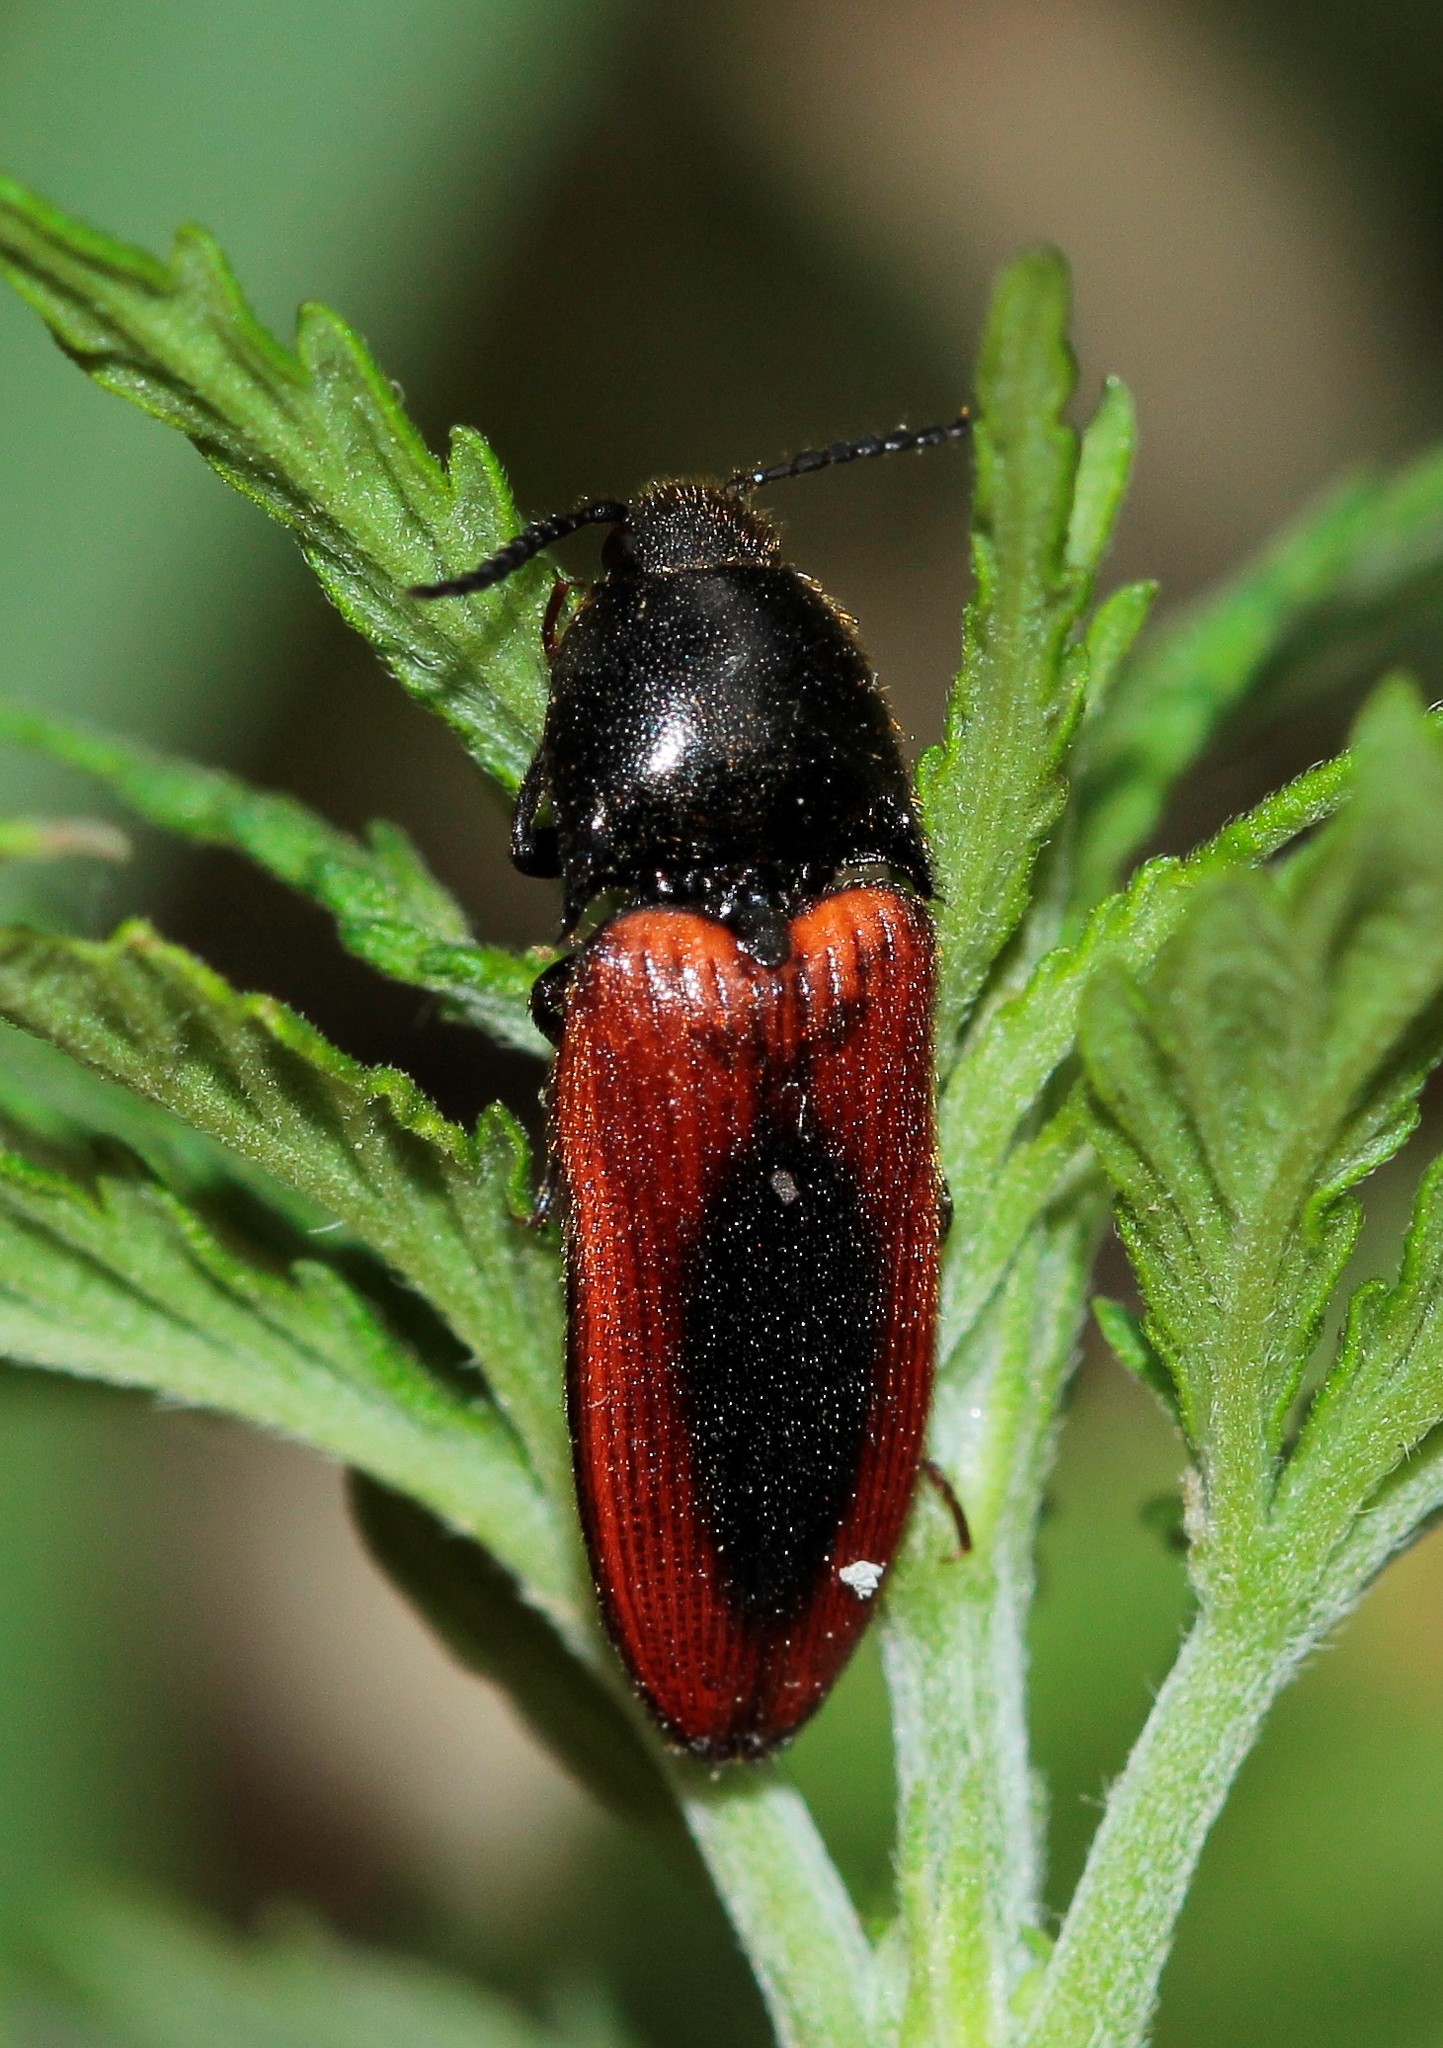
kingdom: Animalia
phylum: Arthropoda
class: Insecta
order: Coleoptera
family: Elateridae
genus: Ampedus
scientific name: Ampedus sanguinolentus
